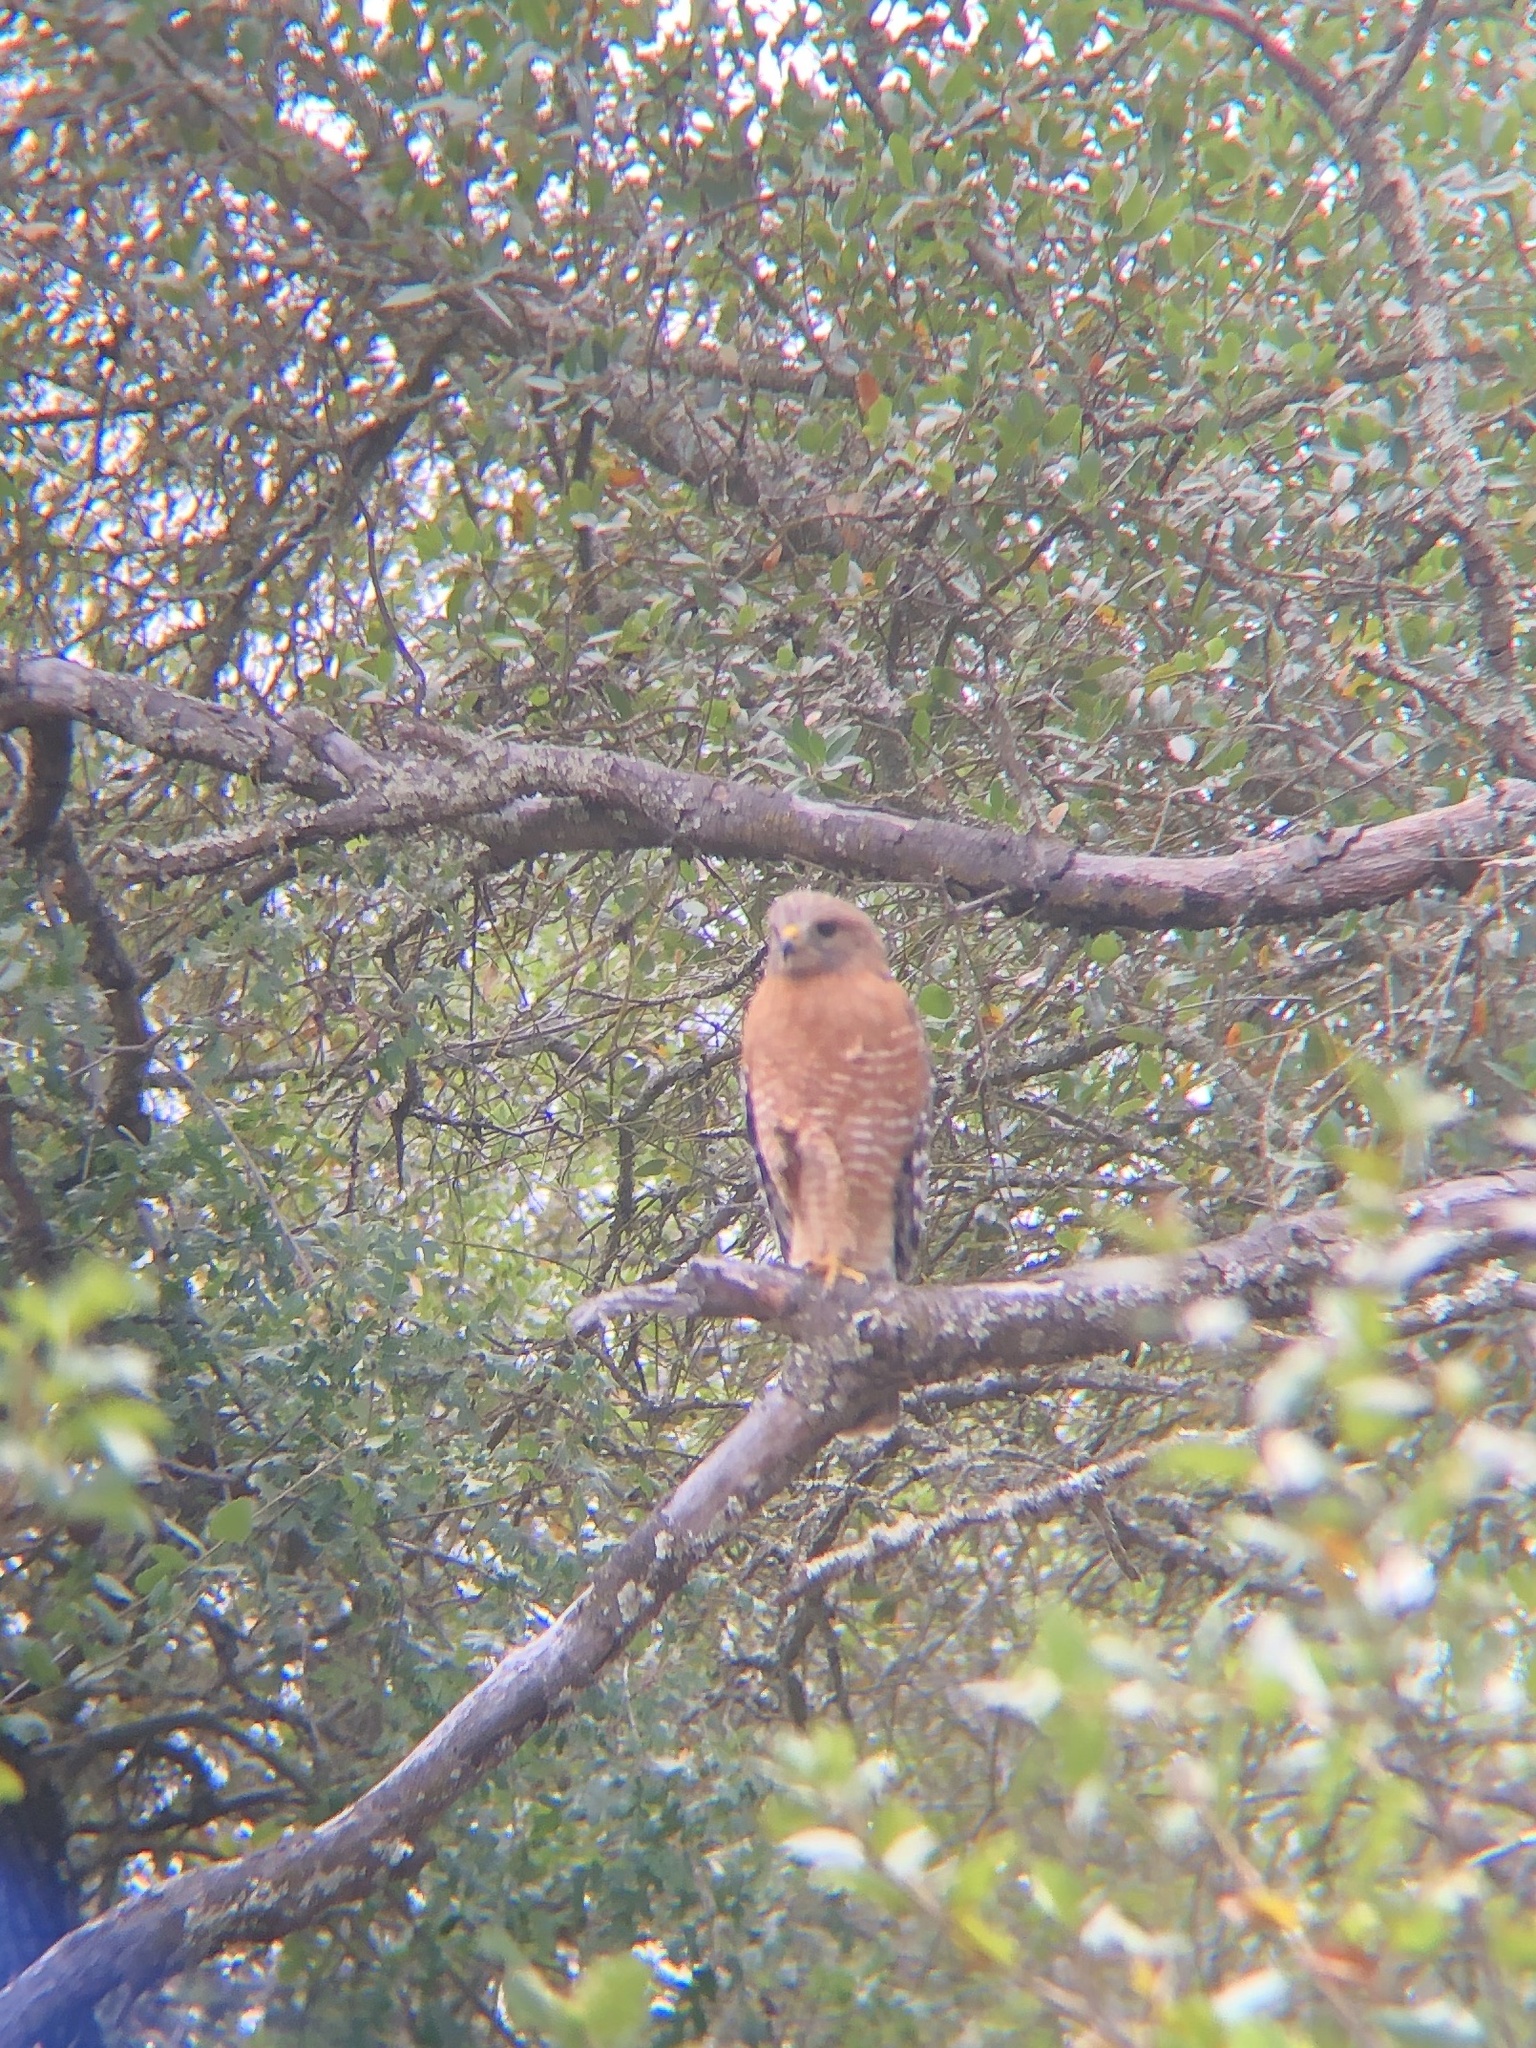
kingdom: Animalia
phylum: Chordata
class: Aves
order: Accipitriformes
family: Accipitridae
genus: Buteo
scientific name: Buteo lineatus
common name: Red-shouldered hawk
